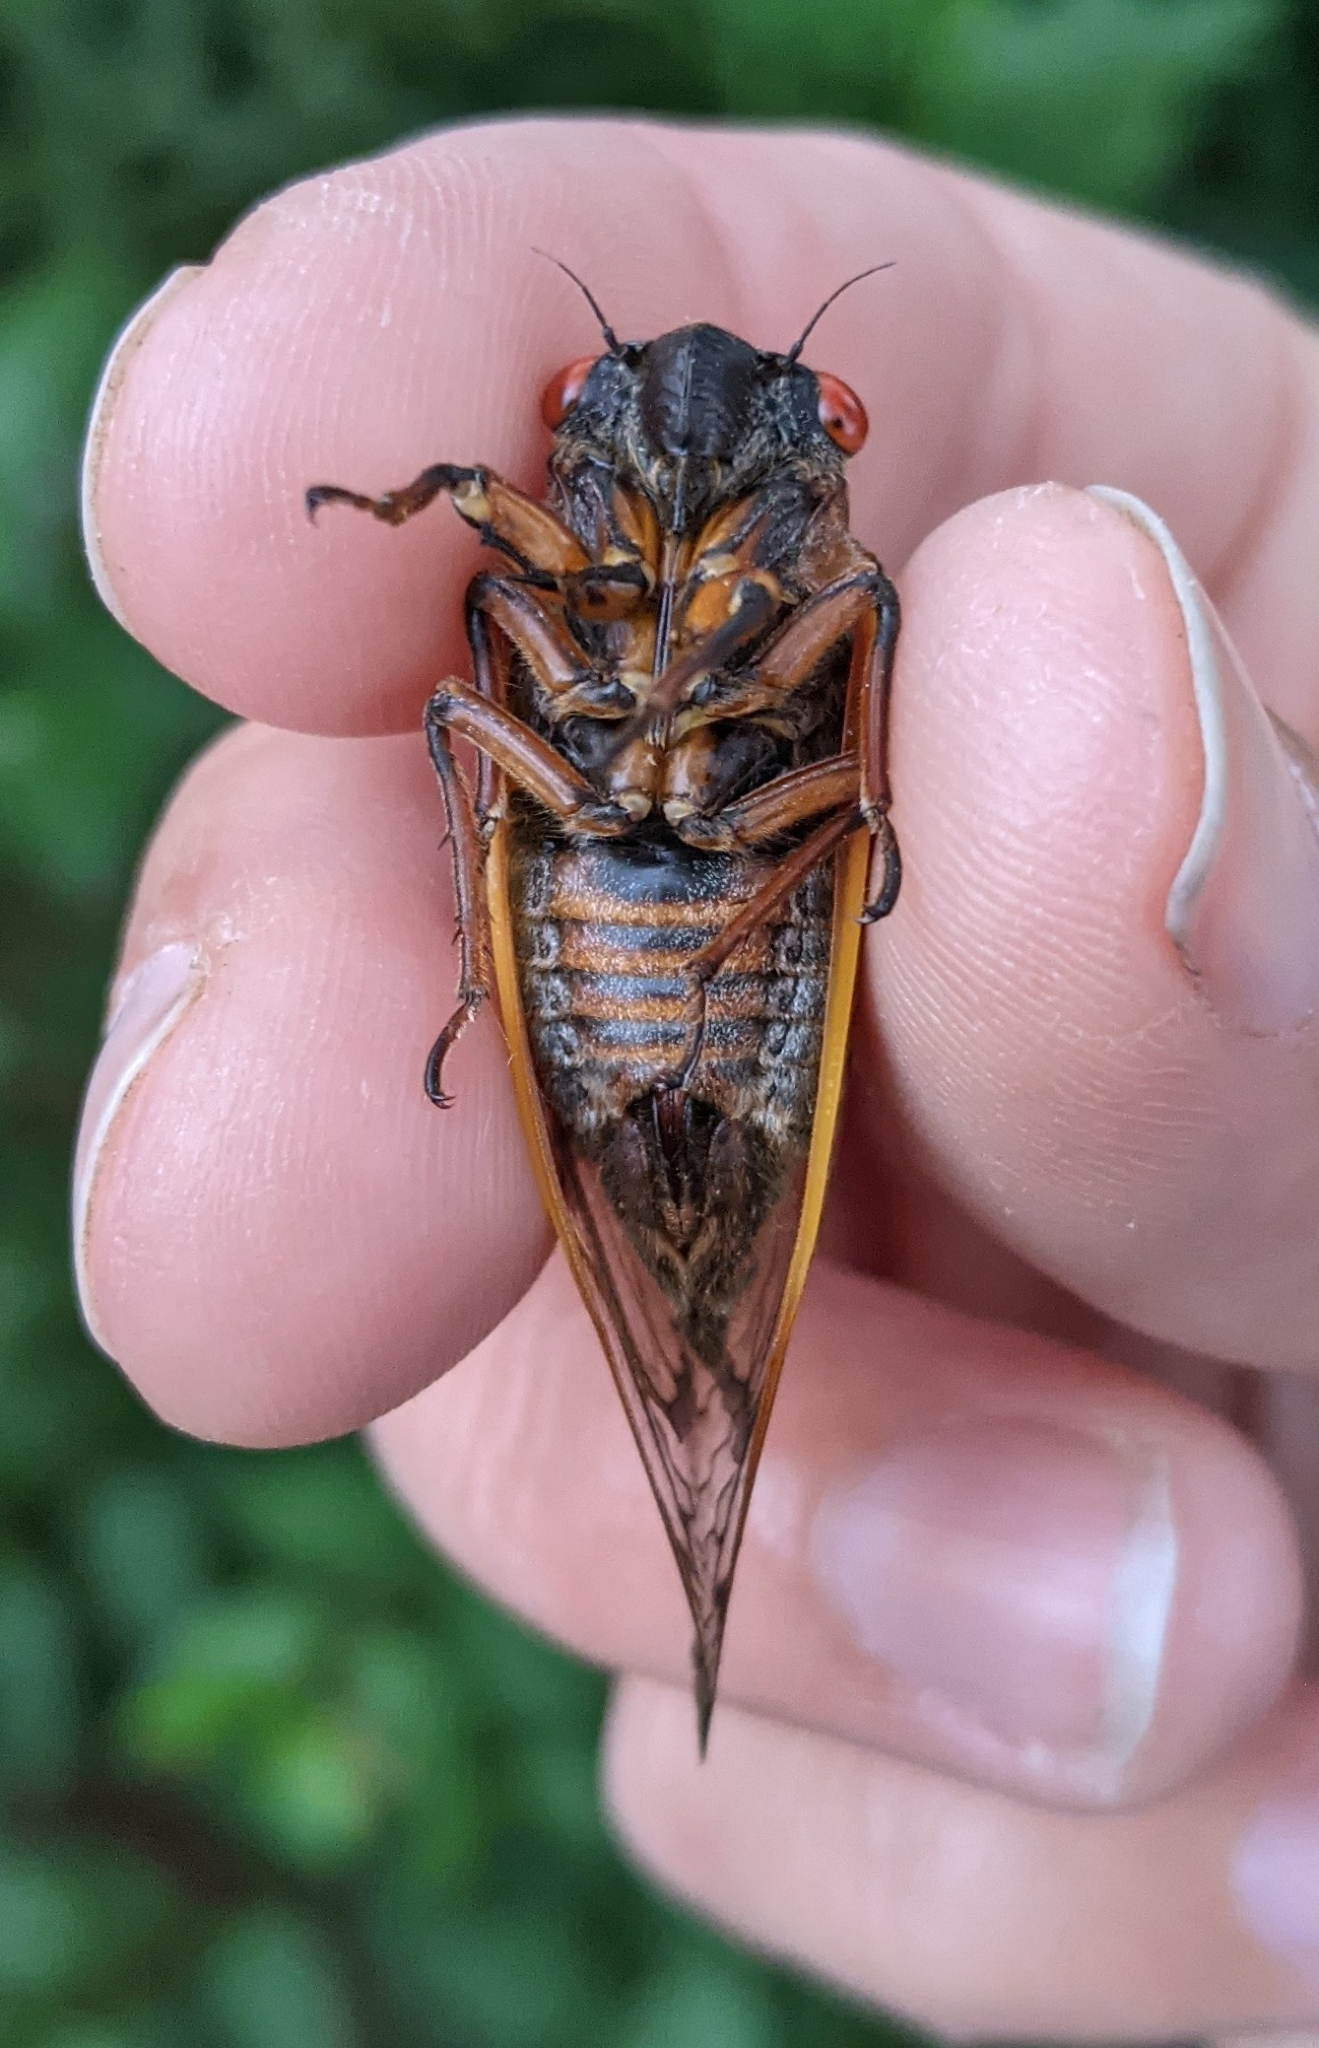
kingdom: Animalia
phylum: Arthropoda
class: Insecta
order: Hemiptera
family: Cicadidae
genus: Magicicada
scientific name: Magicicada septendecim
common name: Periodical cicada
